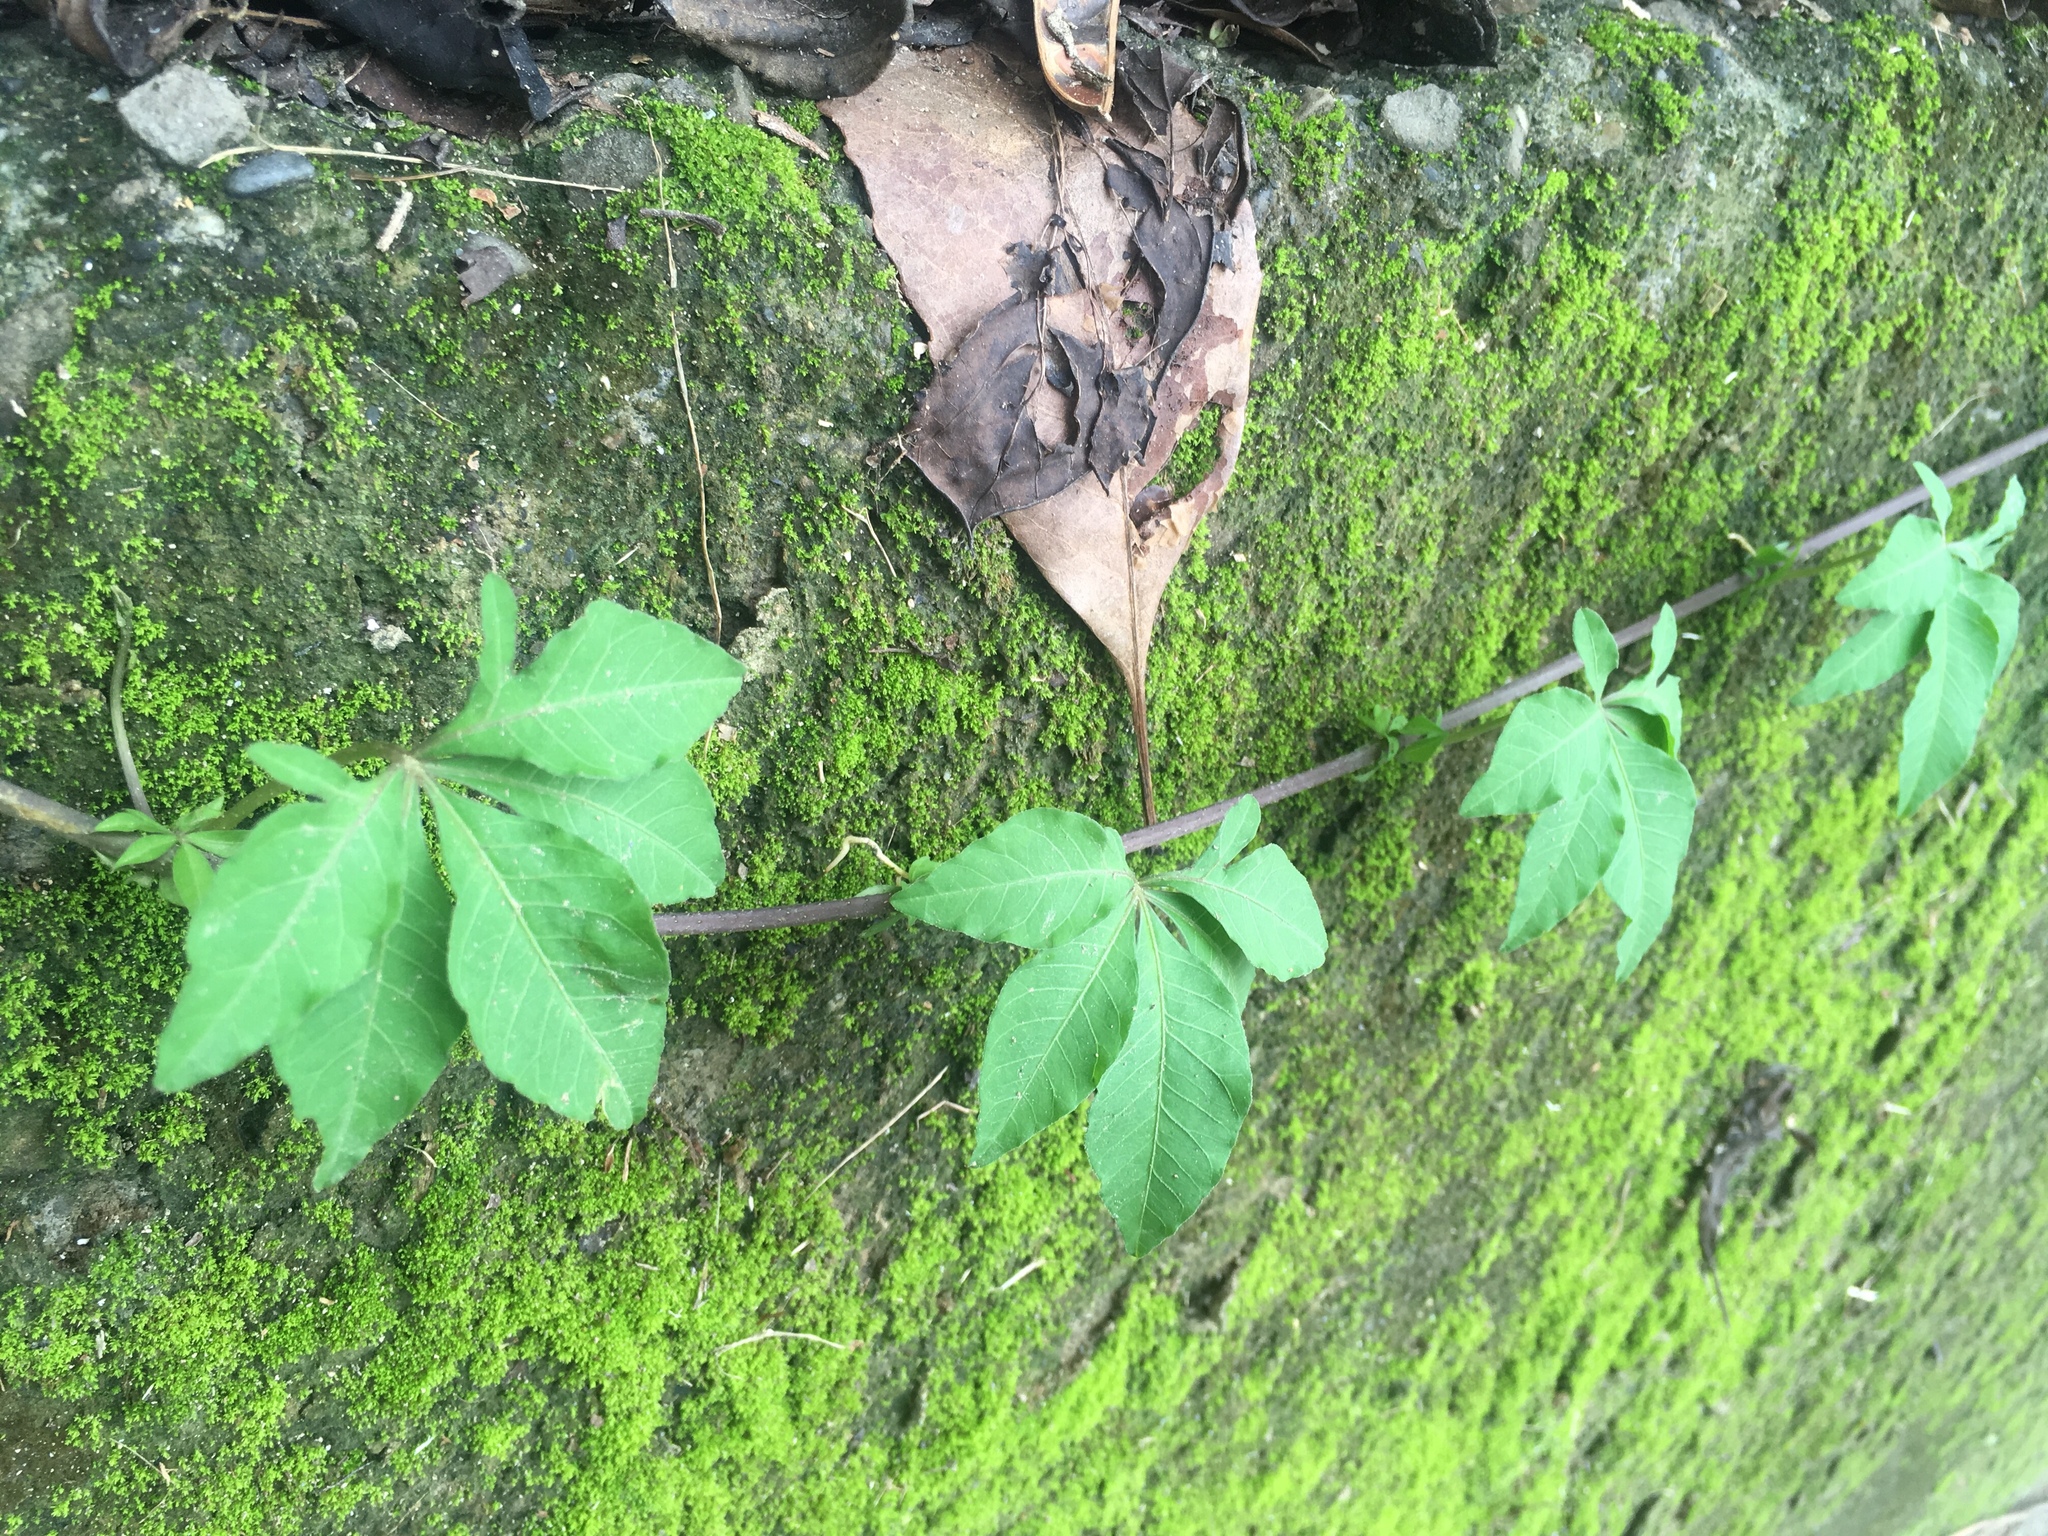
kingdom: Plantae
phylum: Tracheophyta
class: Magnoliopsida
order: Solanales
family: Convolvulaceae
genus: Ipomoea
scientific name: Ipomoea cairica
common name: Mile a minute vine
